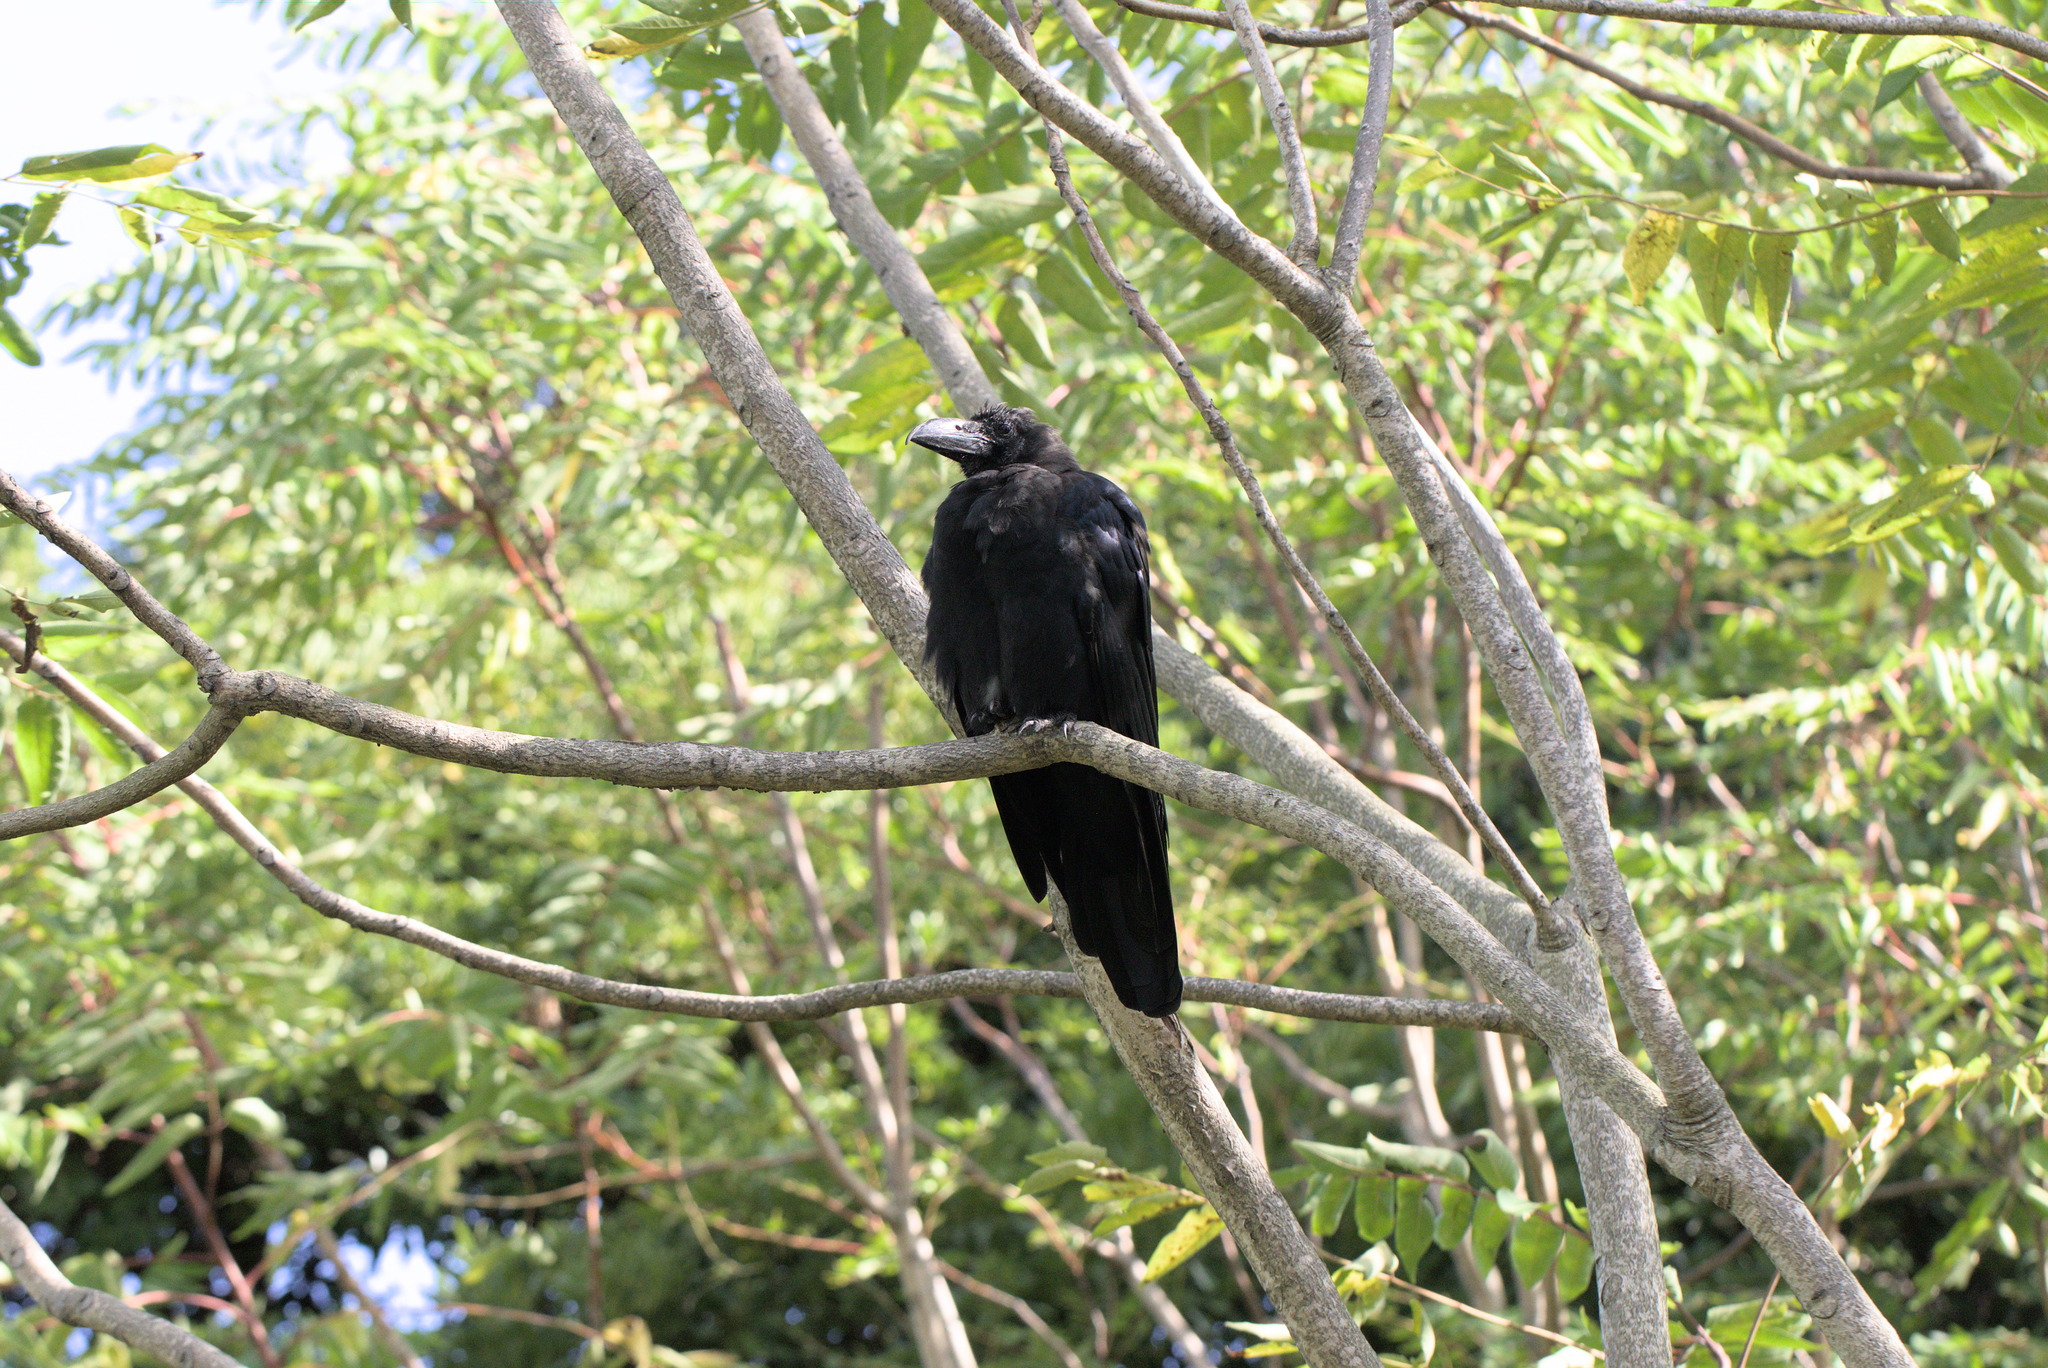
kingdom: Animalia
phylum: Chordata
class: Aves
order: Passeriformes
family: Corvidae
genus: Corvus
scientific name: Corvus macrorhynchos
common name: Large-billed crow
